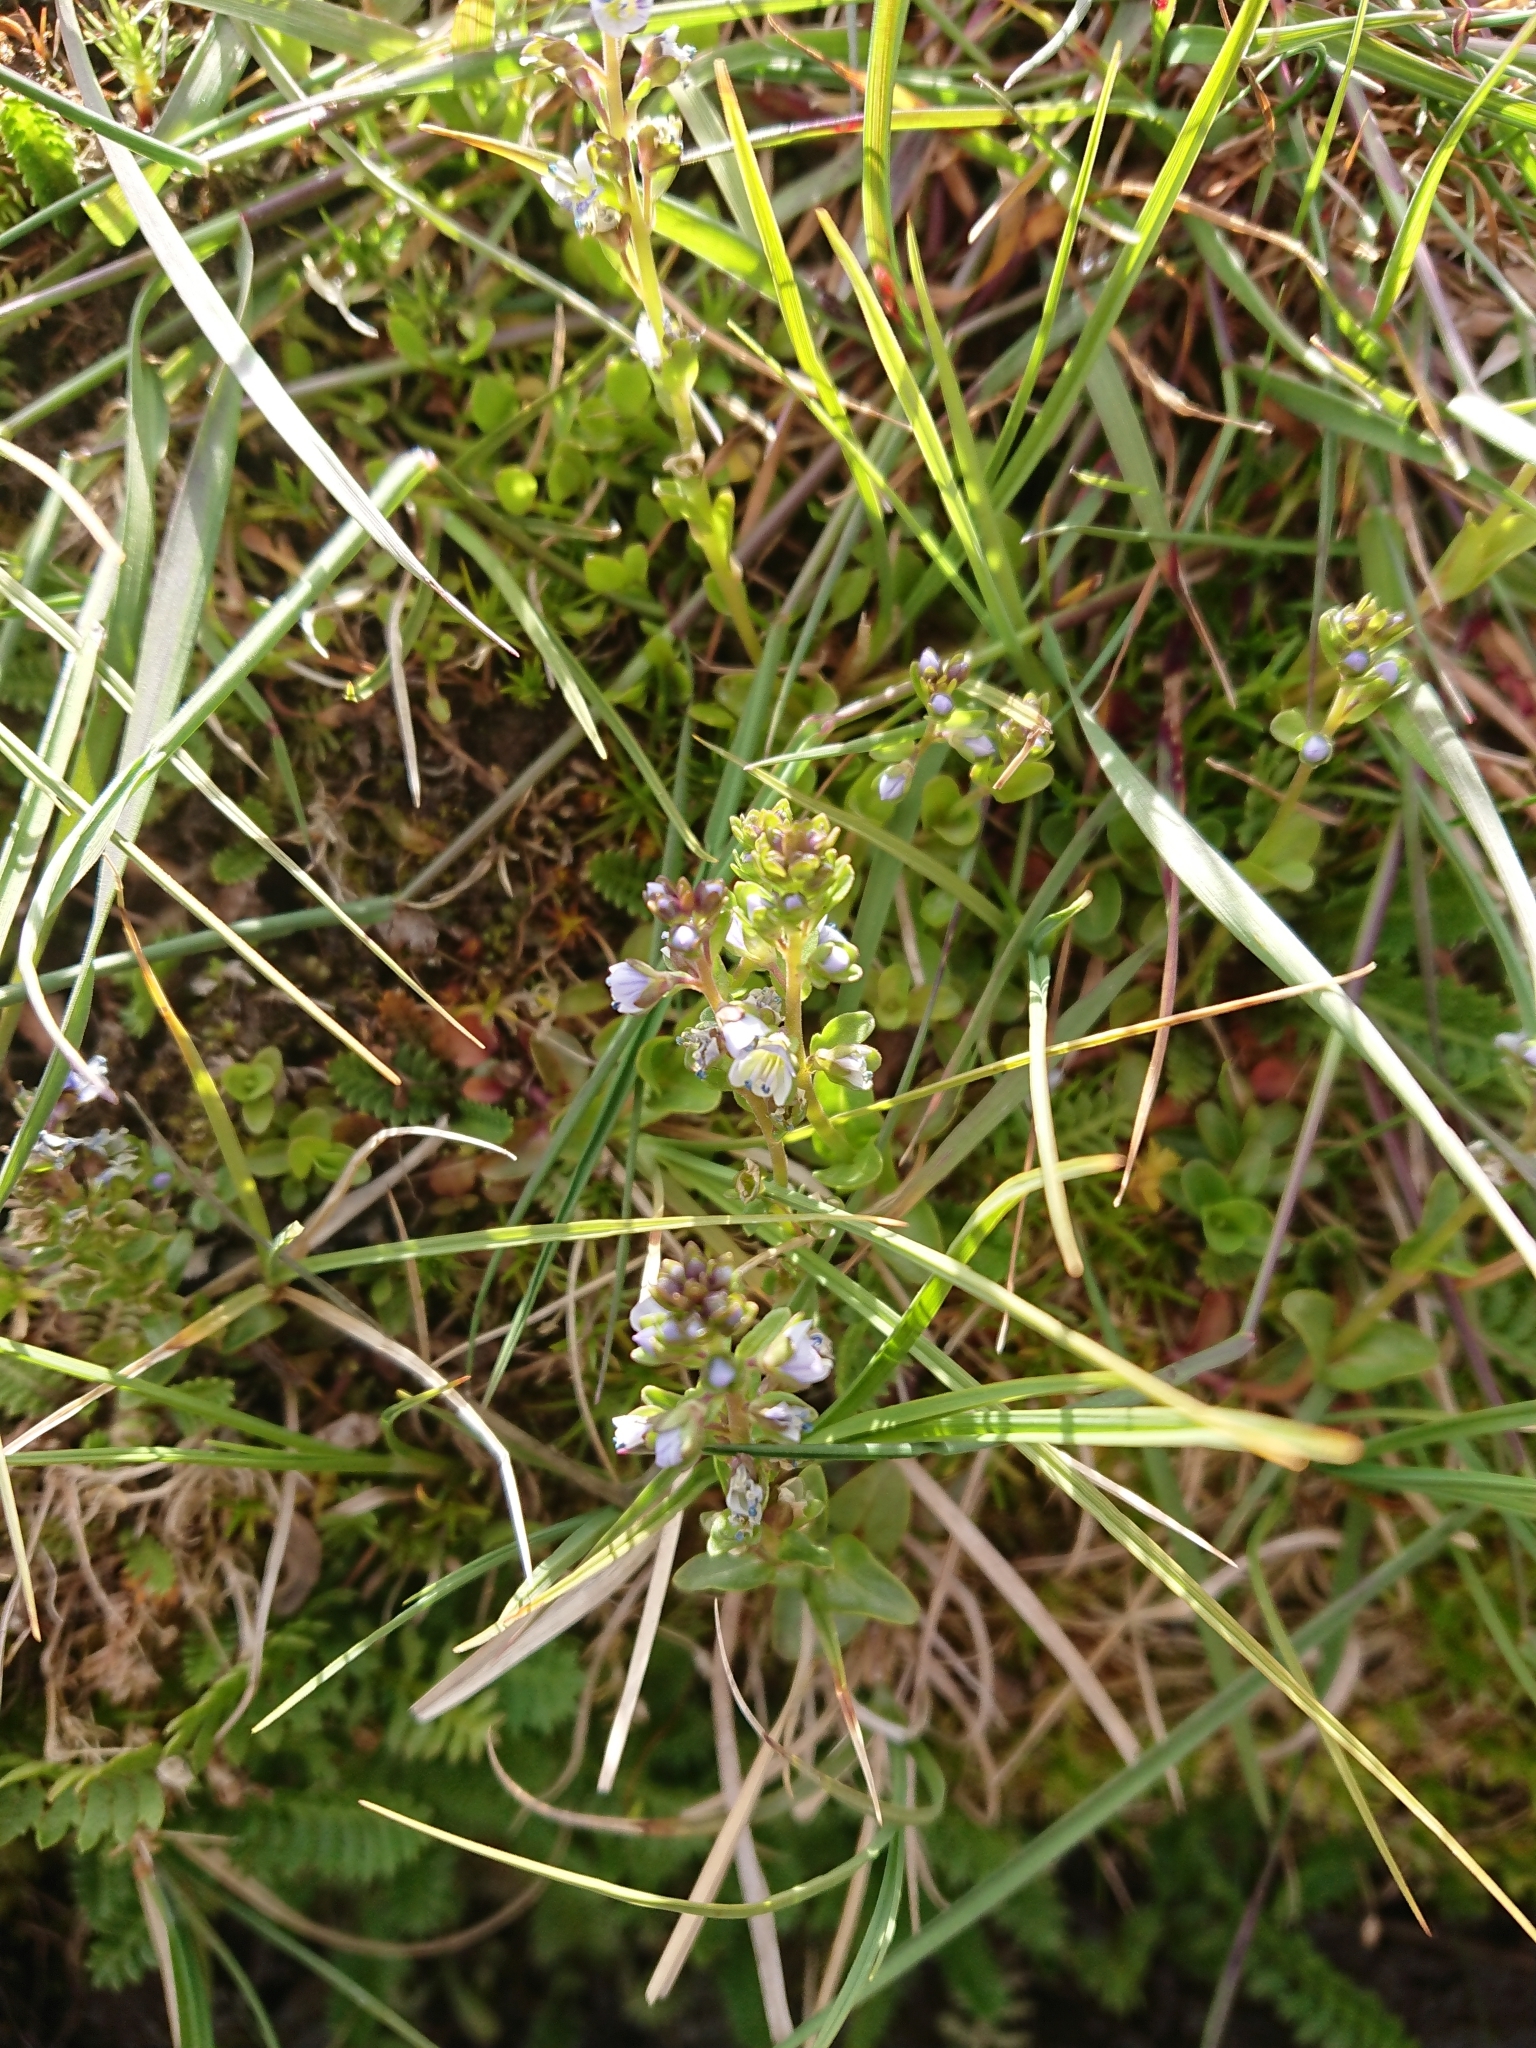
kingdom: Plantae
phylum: Tracheophyta
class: Magnoliopsida
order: Lamiales
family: Plantaginaceae
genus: Veronica
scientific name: Veronica serpyllifolia
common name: Thyme-leaved speedwell
